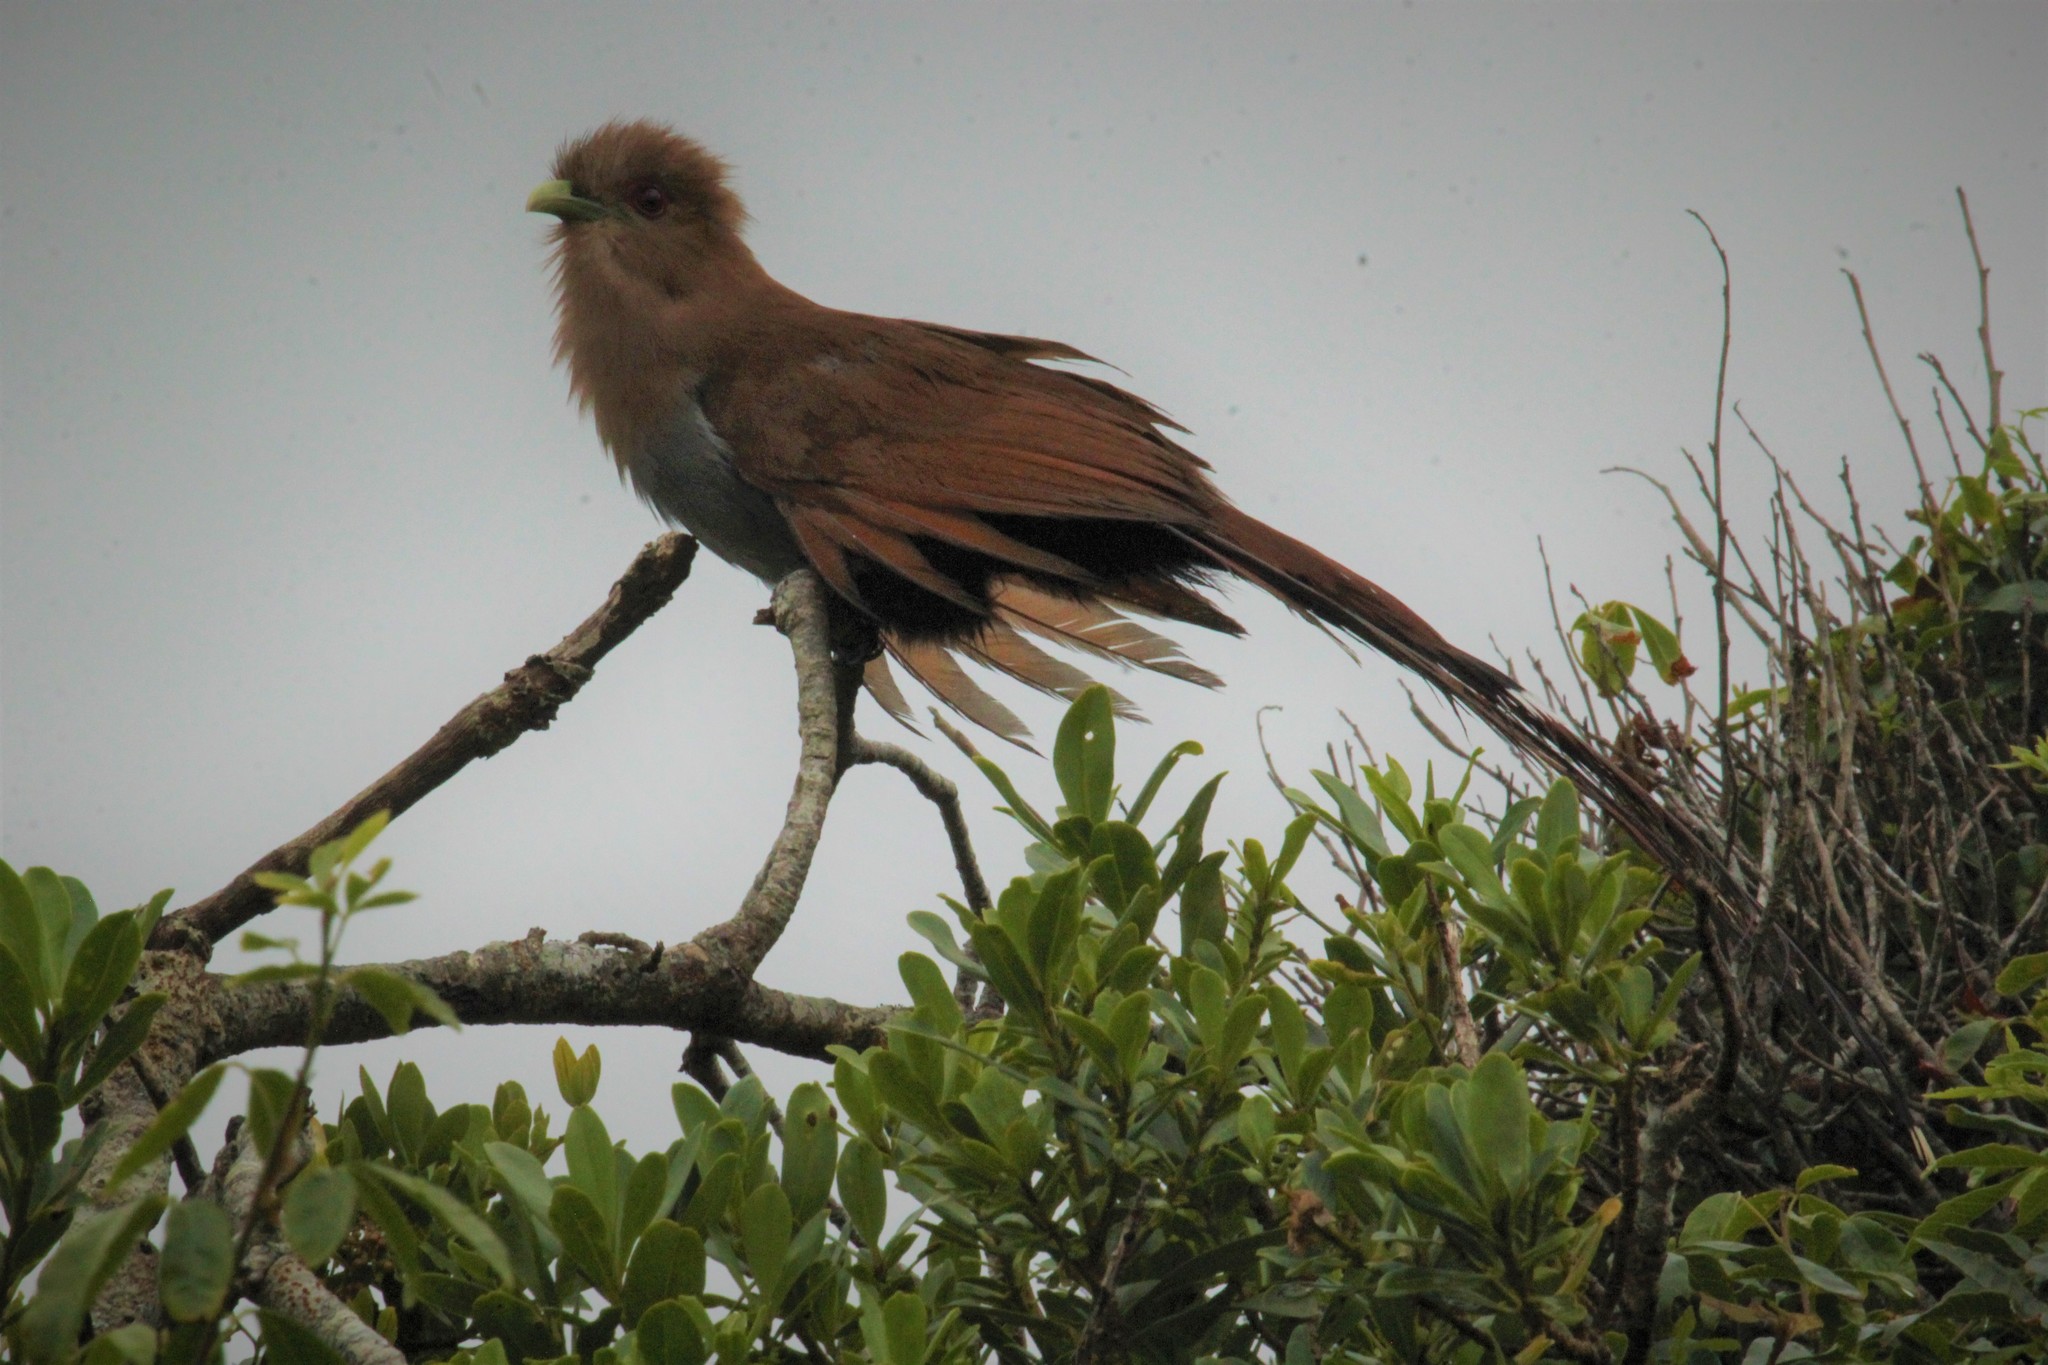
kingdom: Animalia
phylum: Chordata
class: Aves
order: Cuculiformes
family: Cuculidae
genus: Piaya
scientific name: Piaya cayana
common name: Squirrel cuckoo
